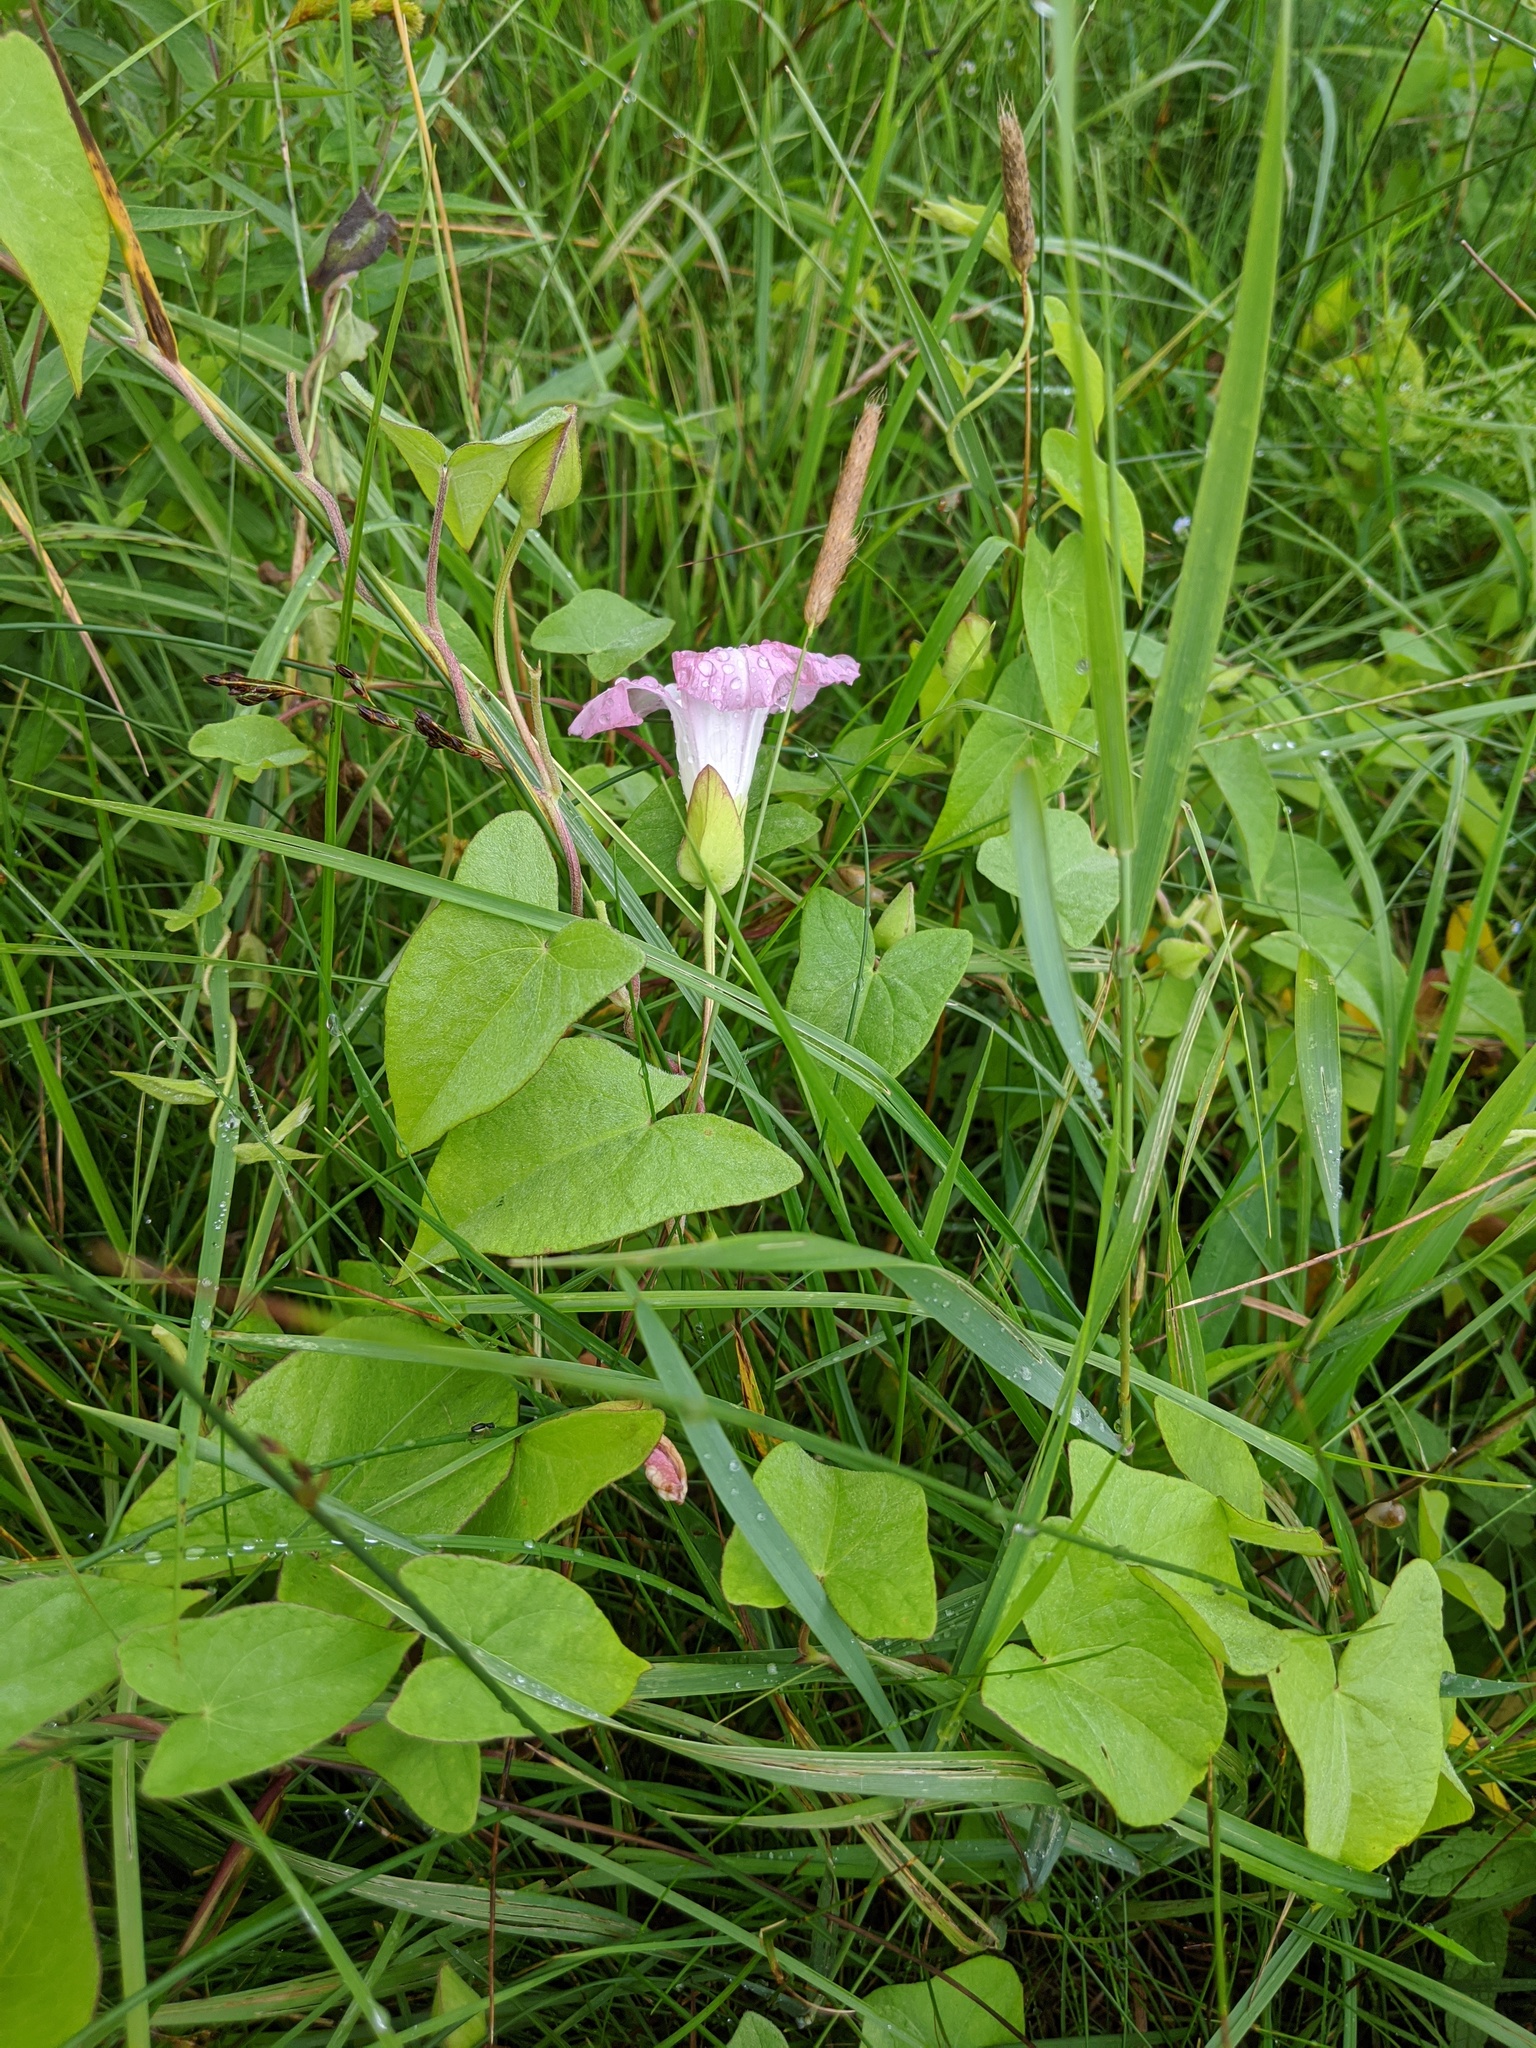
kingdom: Plantae
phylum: Tracheophyta
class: Magnoliopsida
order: Solanales
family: Convolvulaceae
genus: Calystegia
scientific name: Calystegia sepium
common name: Hedge bindweed
